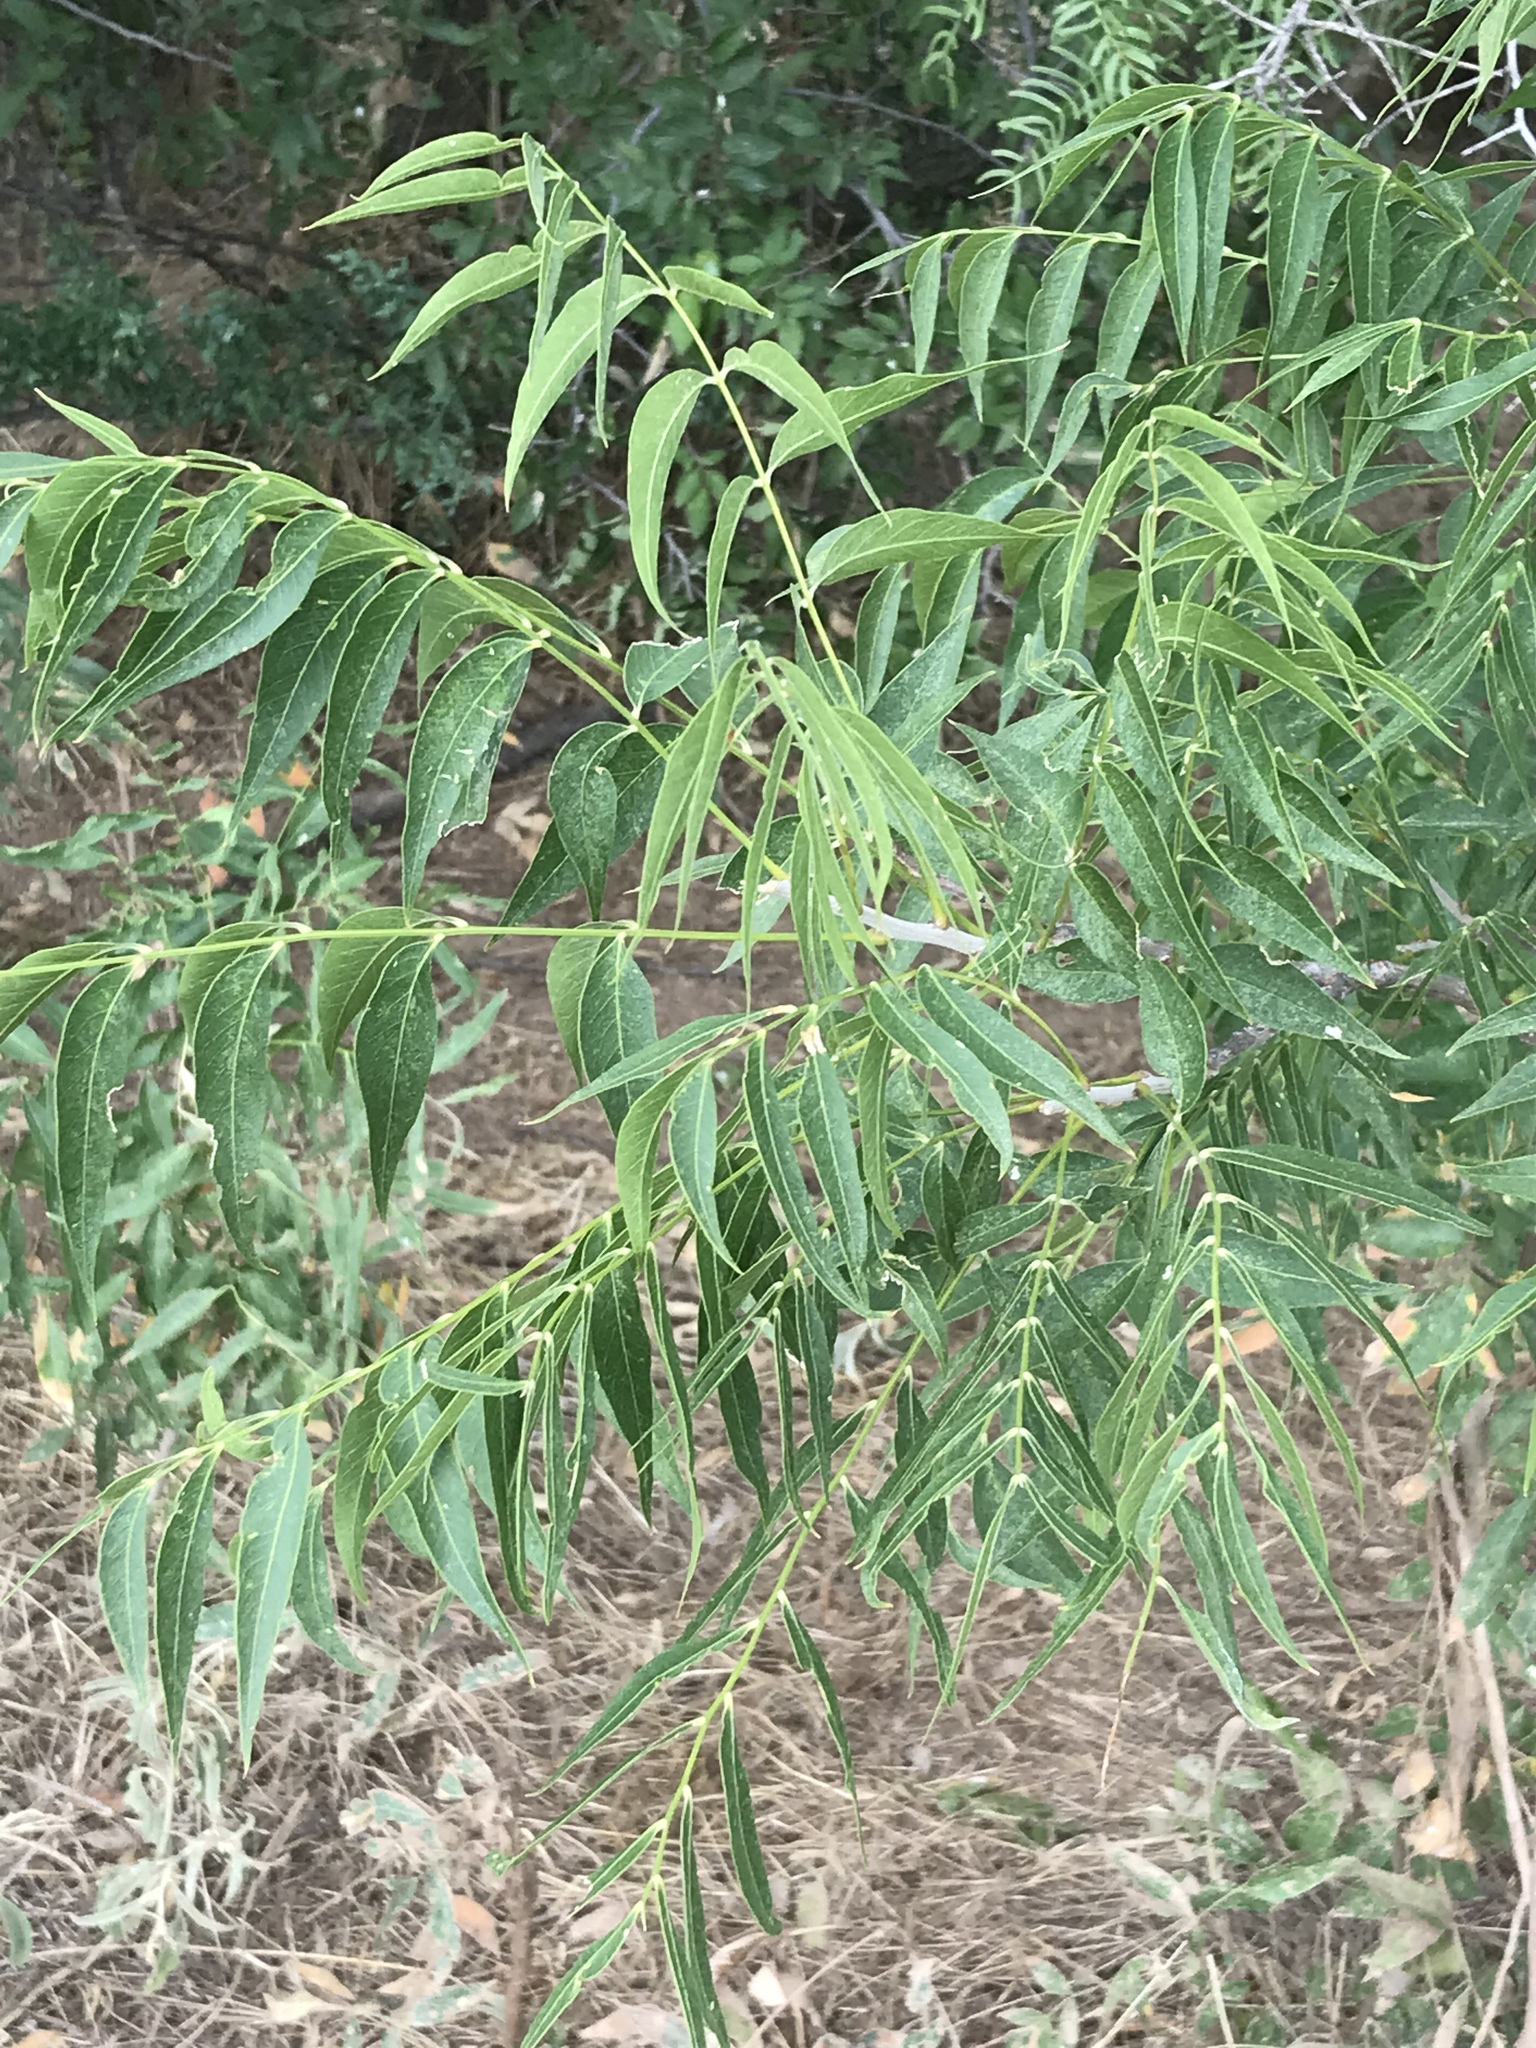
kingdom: Plantae
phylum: Tracheophyta
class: Magnoliopsida
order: Sapindales
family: Sapindaceae
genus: Sapindus
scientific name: Sapindus drummondii
